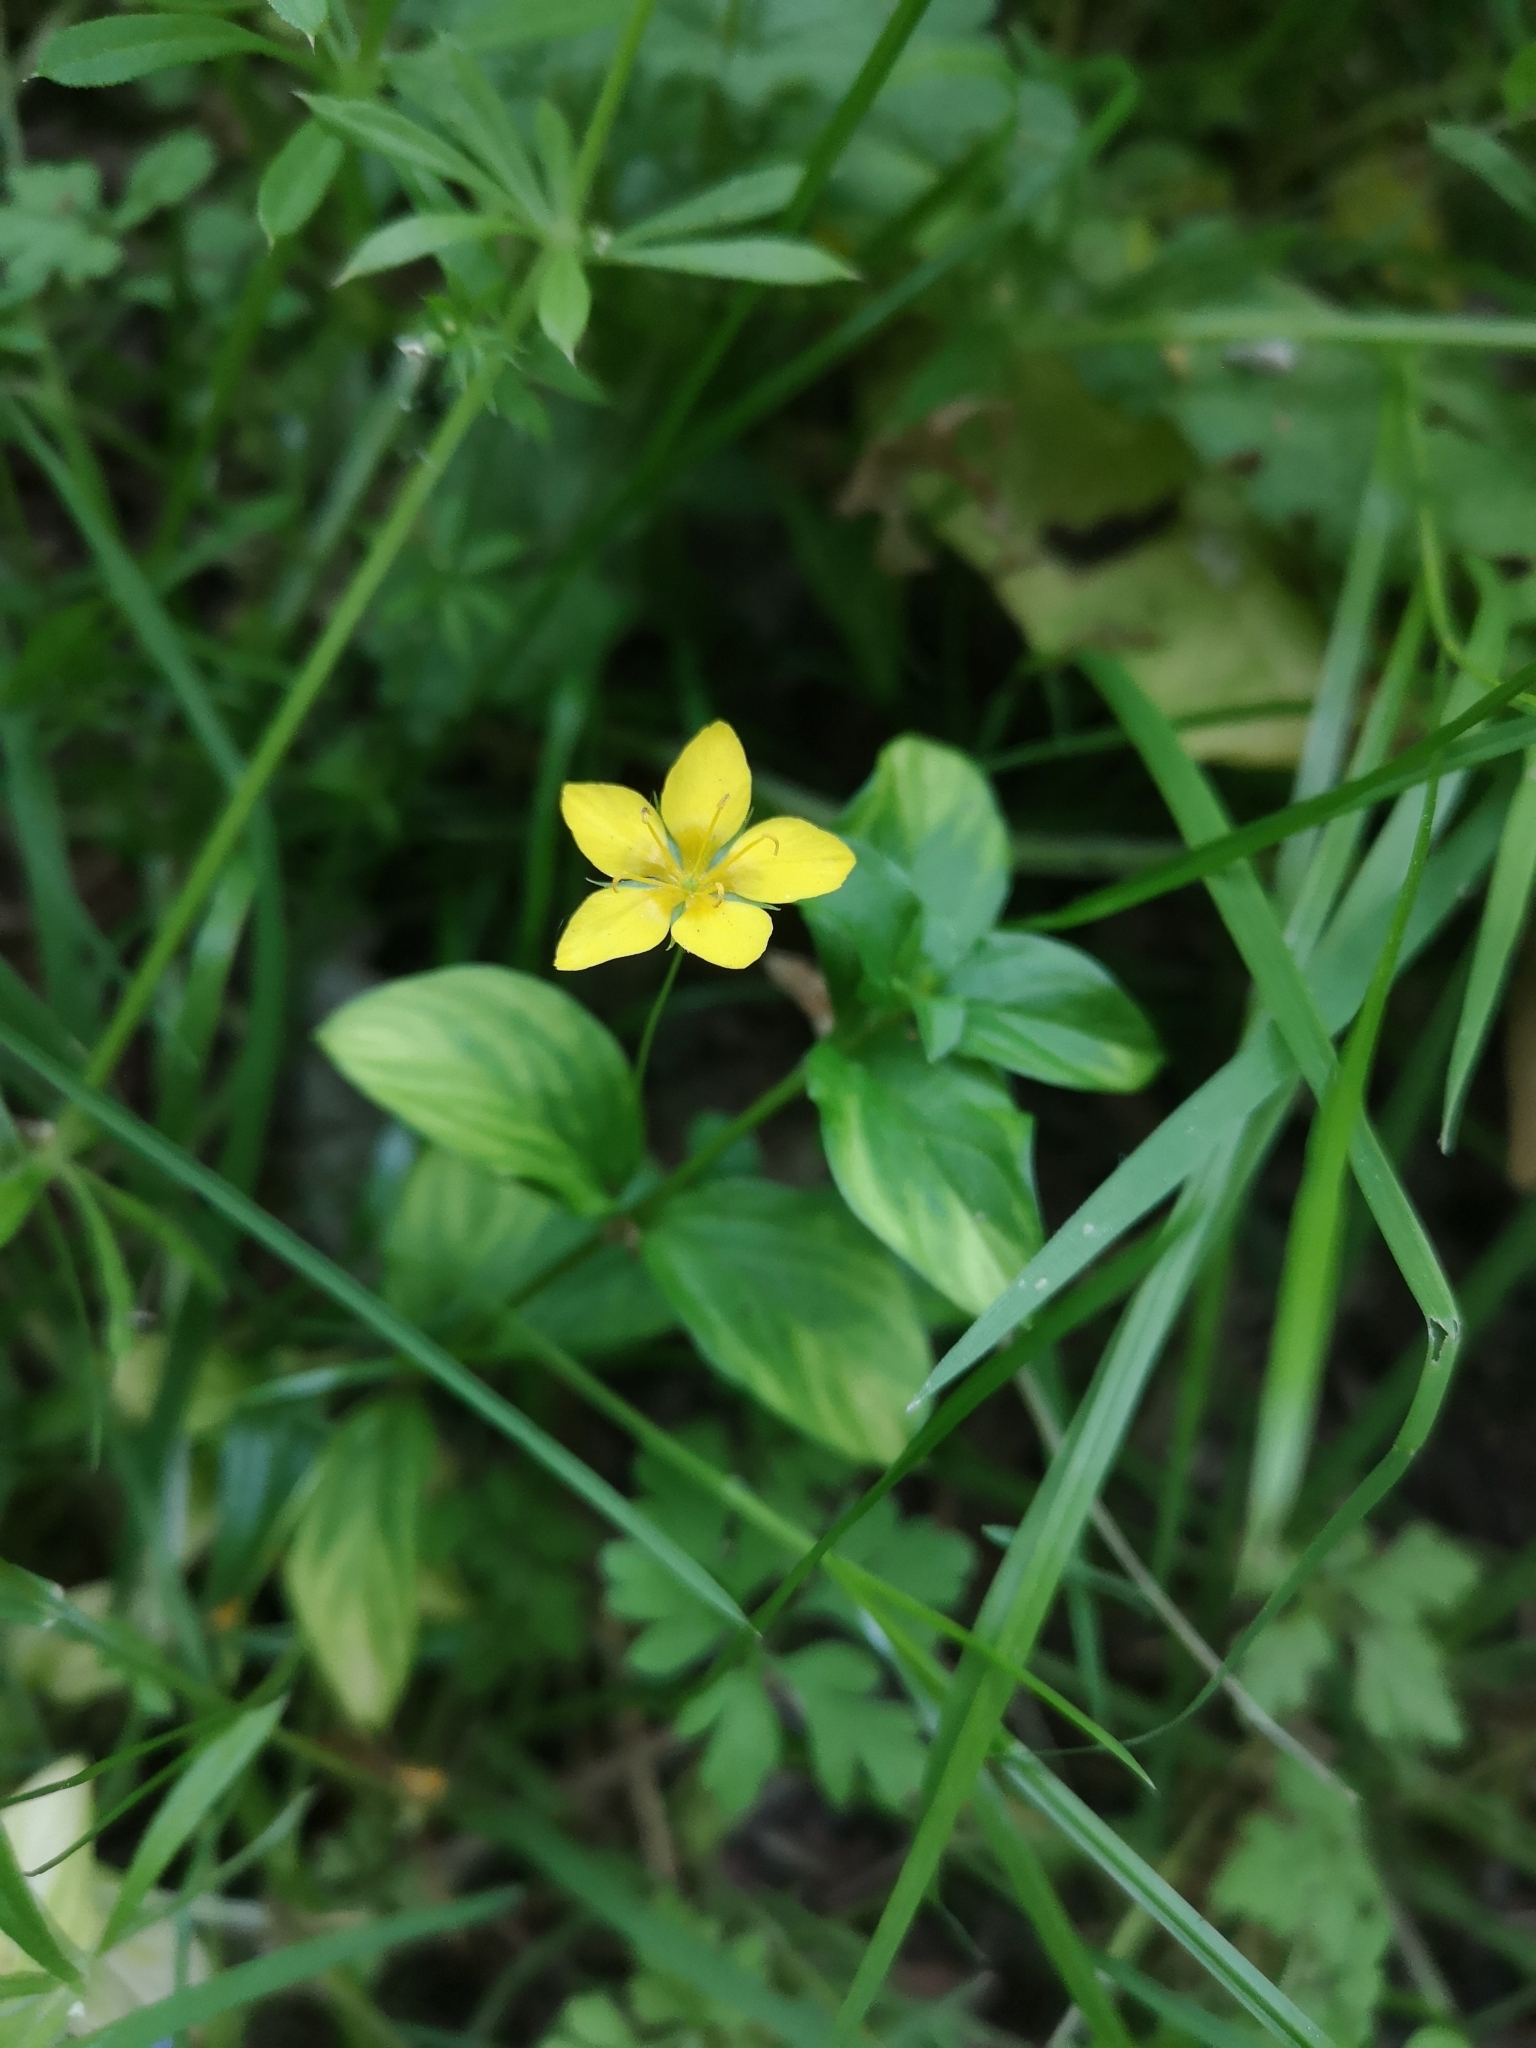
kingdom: Plantae
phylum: Tracheophyta
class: Magnoliopsida
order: Ericales
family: Primulaceae
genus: Lysimachia
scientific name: Lysimachia nemorum
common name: Yellow pimpernel
